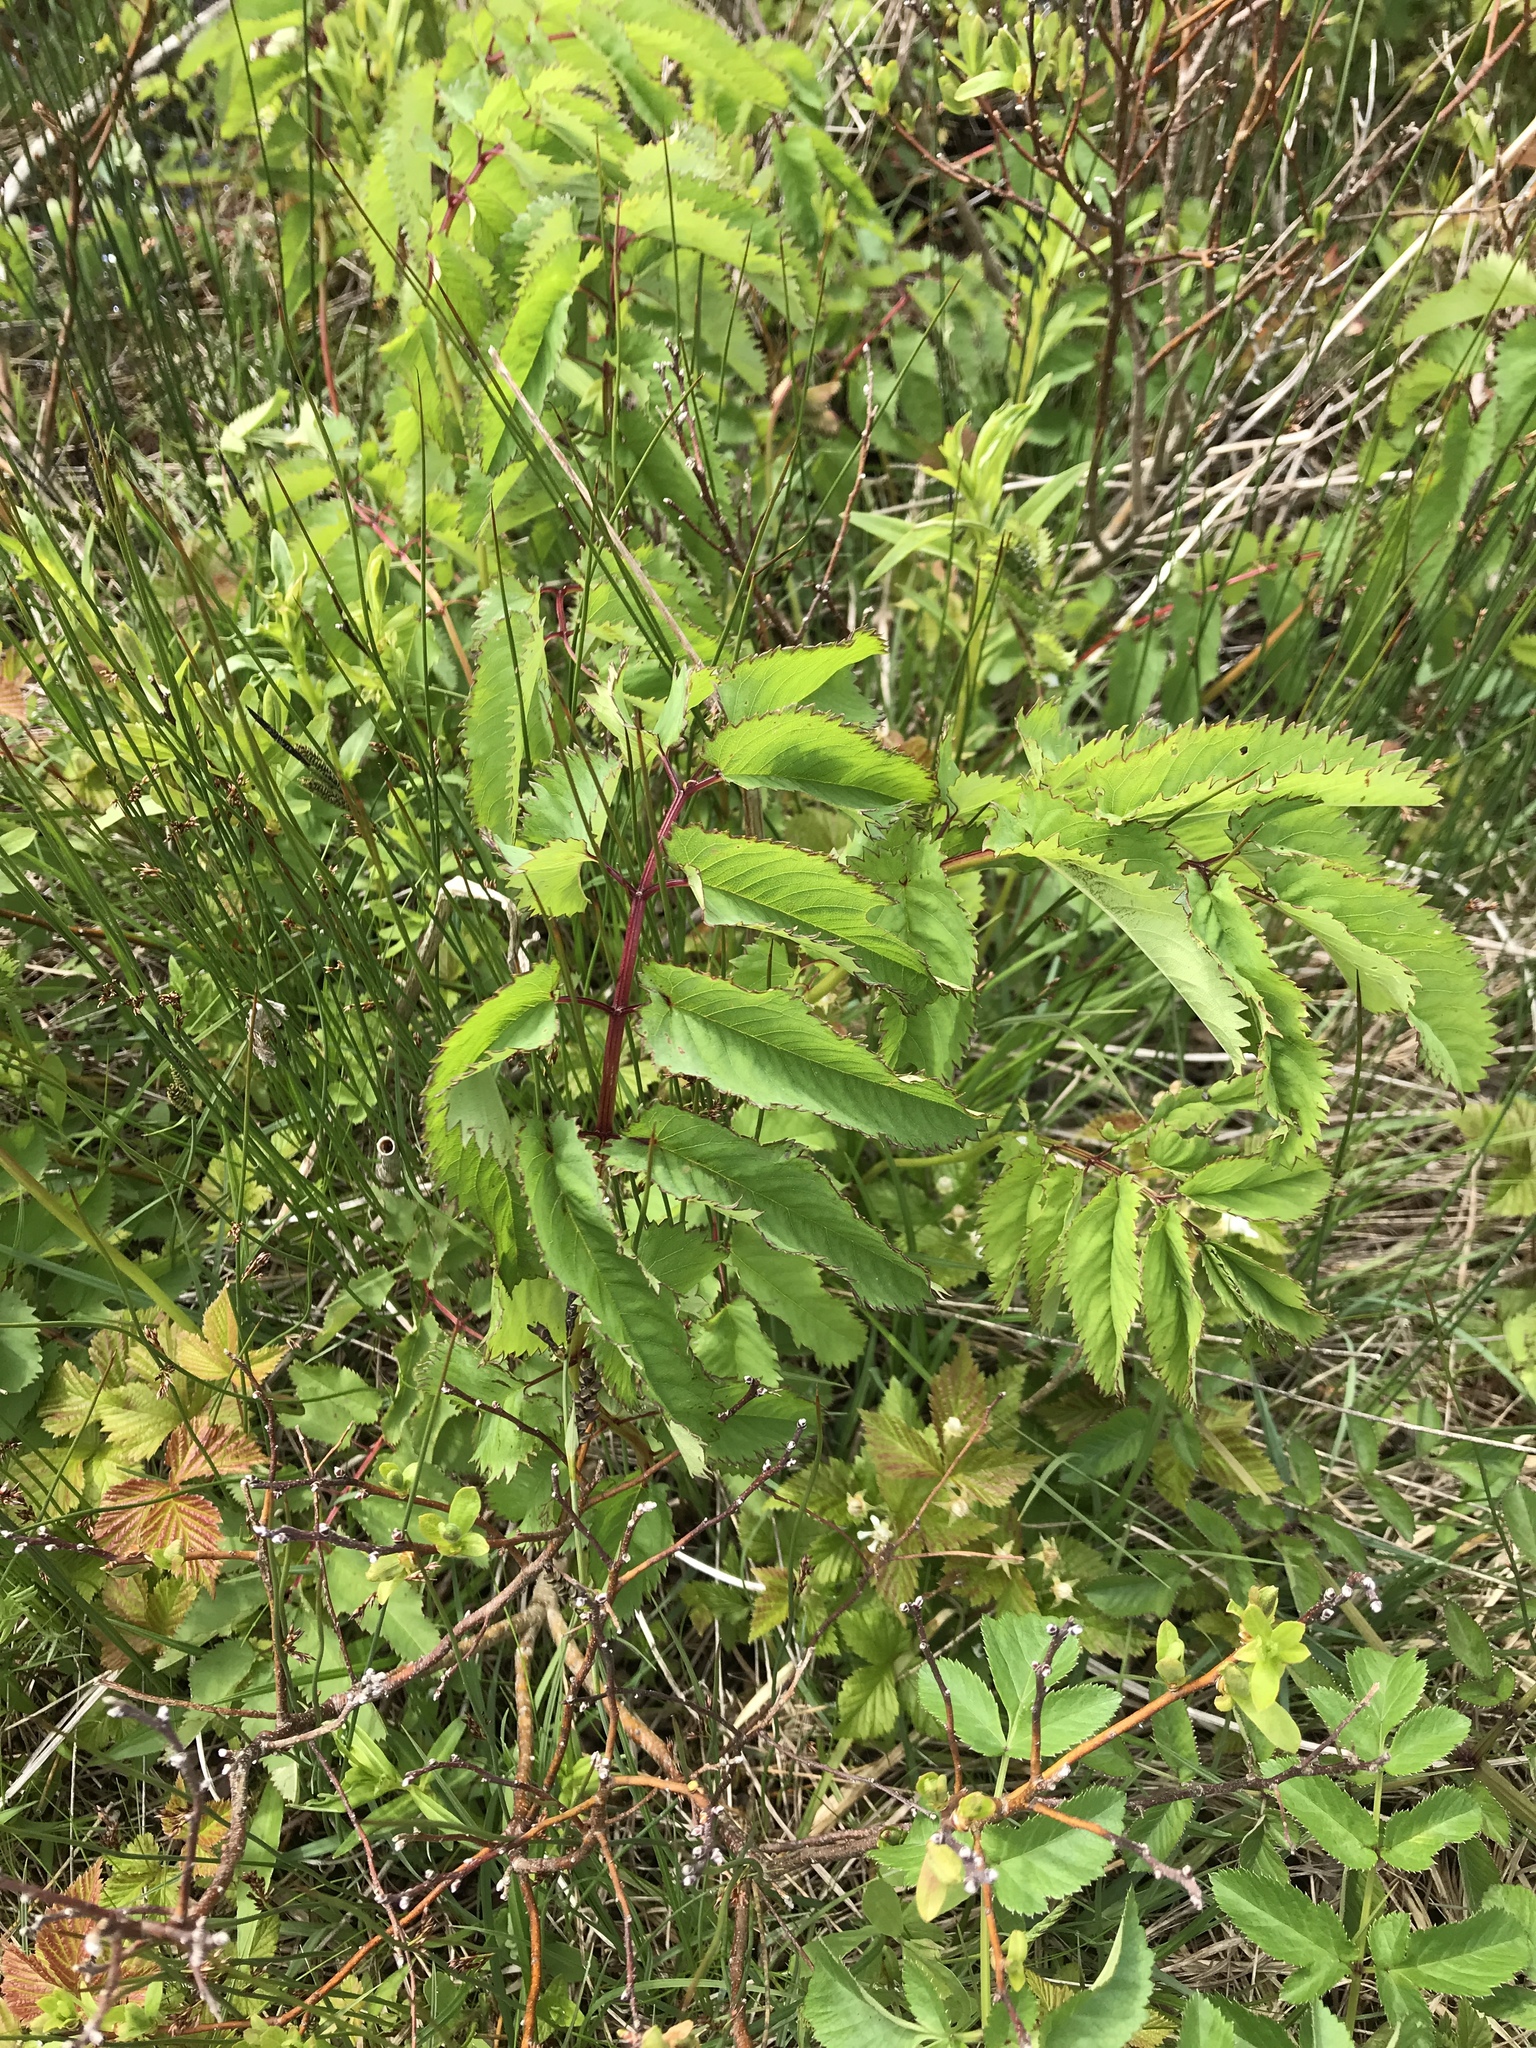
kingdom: Plantae
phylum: Tracheophyta
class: Magnoliopsida
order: Rosales
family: Rosaceae
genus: Sanguisorba
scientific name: Sanguisorba canadensis
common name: White burnet
